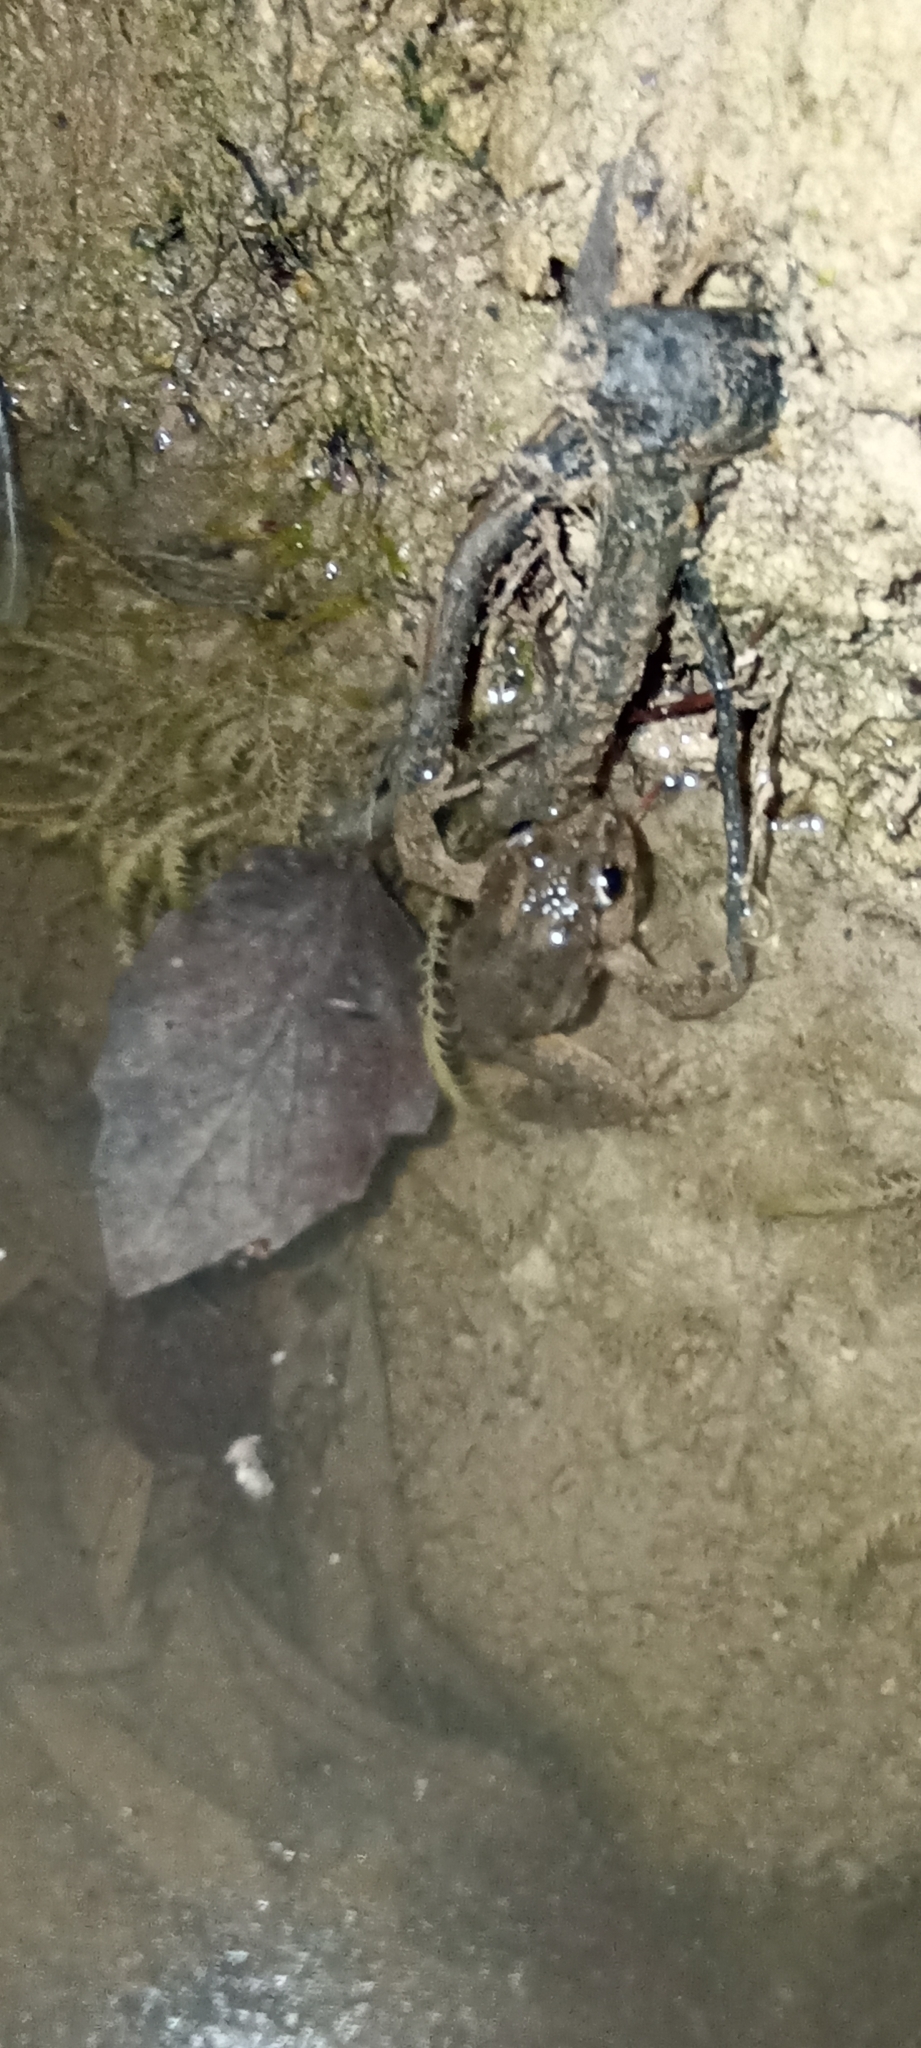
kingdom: Animalia
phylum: Chordata
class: Amphibia
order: Anura
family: Pelodytidae
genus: Pelodytes
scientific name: Pelodytes punctatus
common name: Parsley frog
